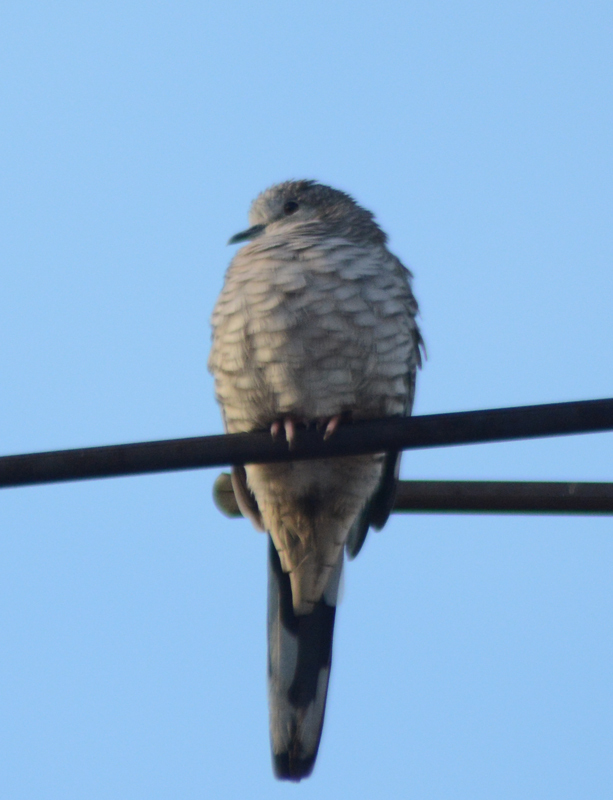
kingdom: Animalia
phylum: Chordata
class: Aves
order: Columbiformes
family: Columbidae
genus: Columbina
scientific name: Columbina inca
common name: Inca dove
